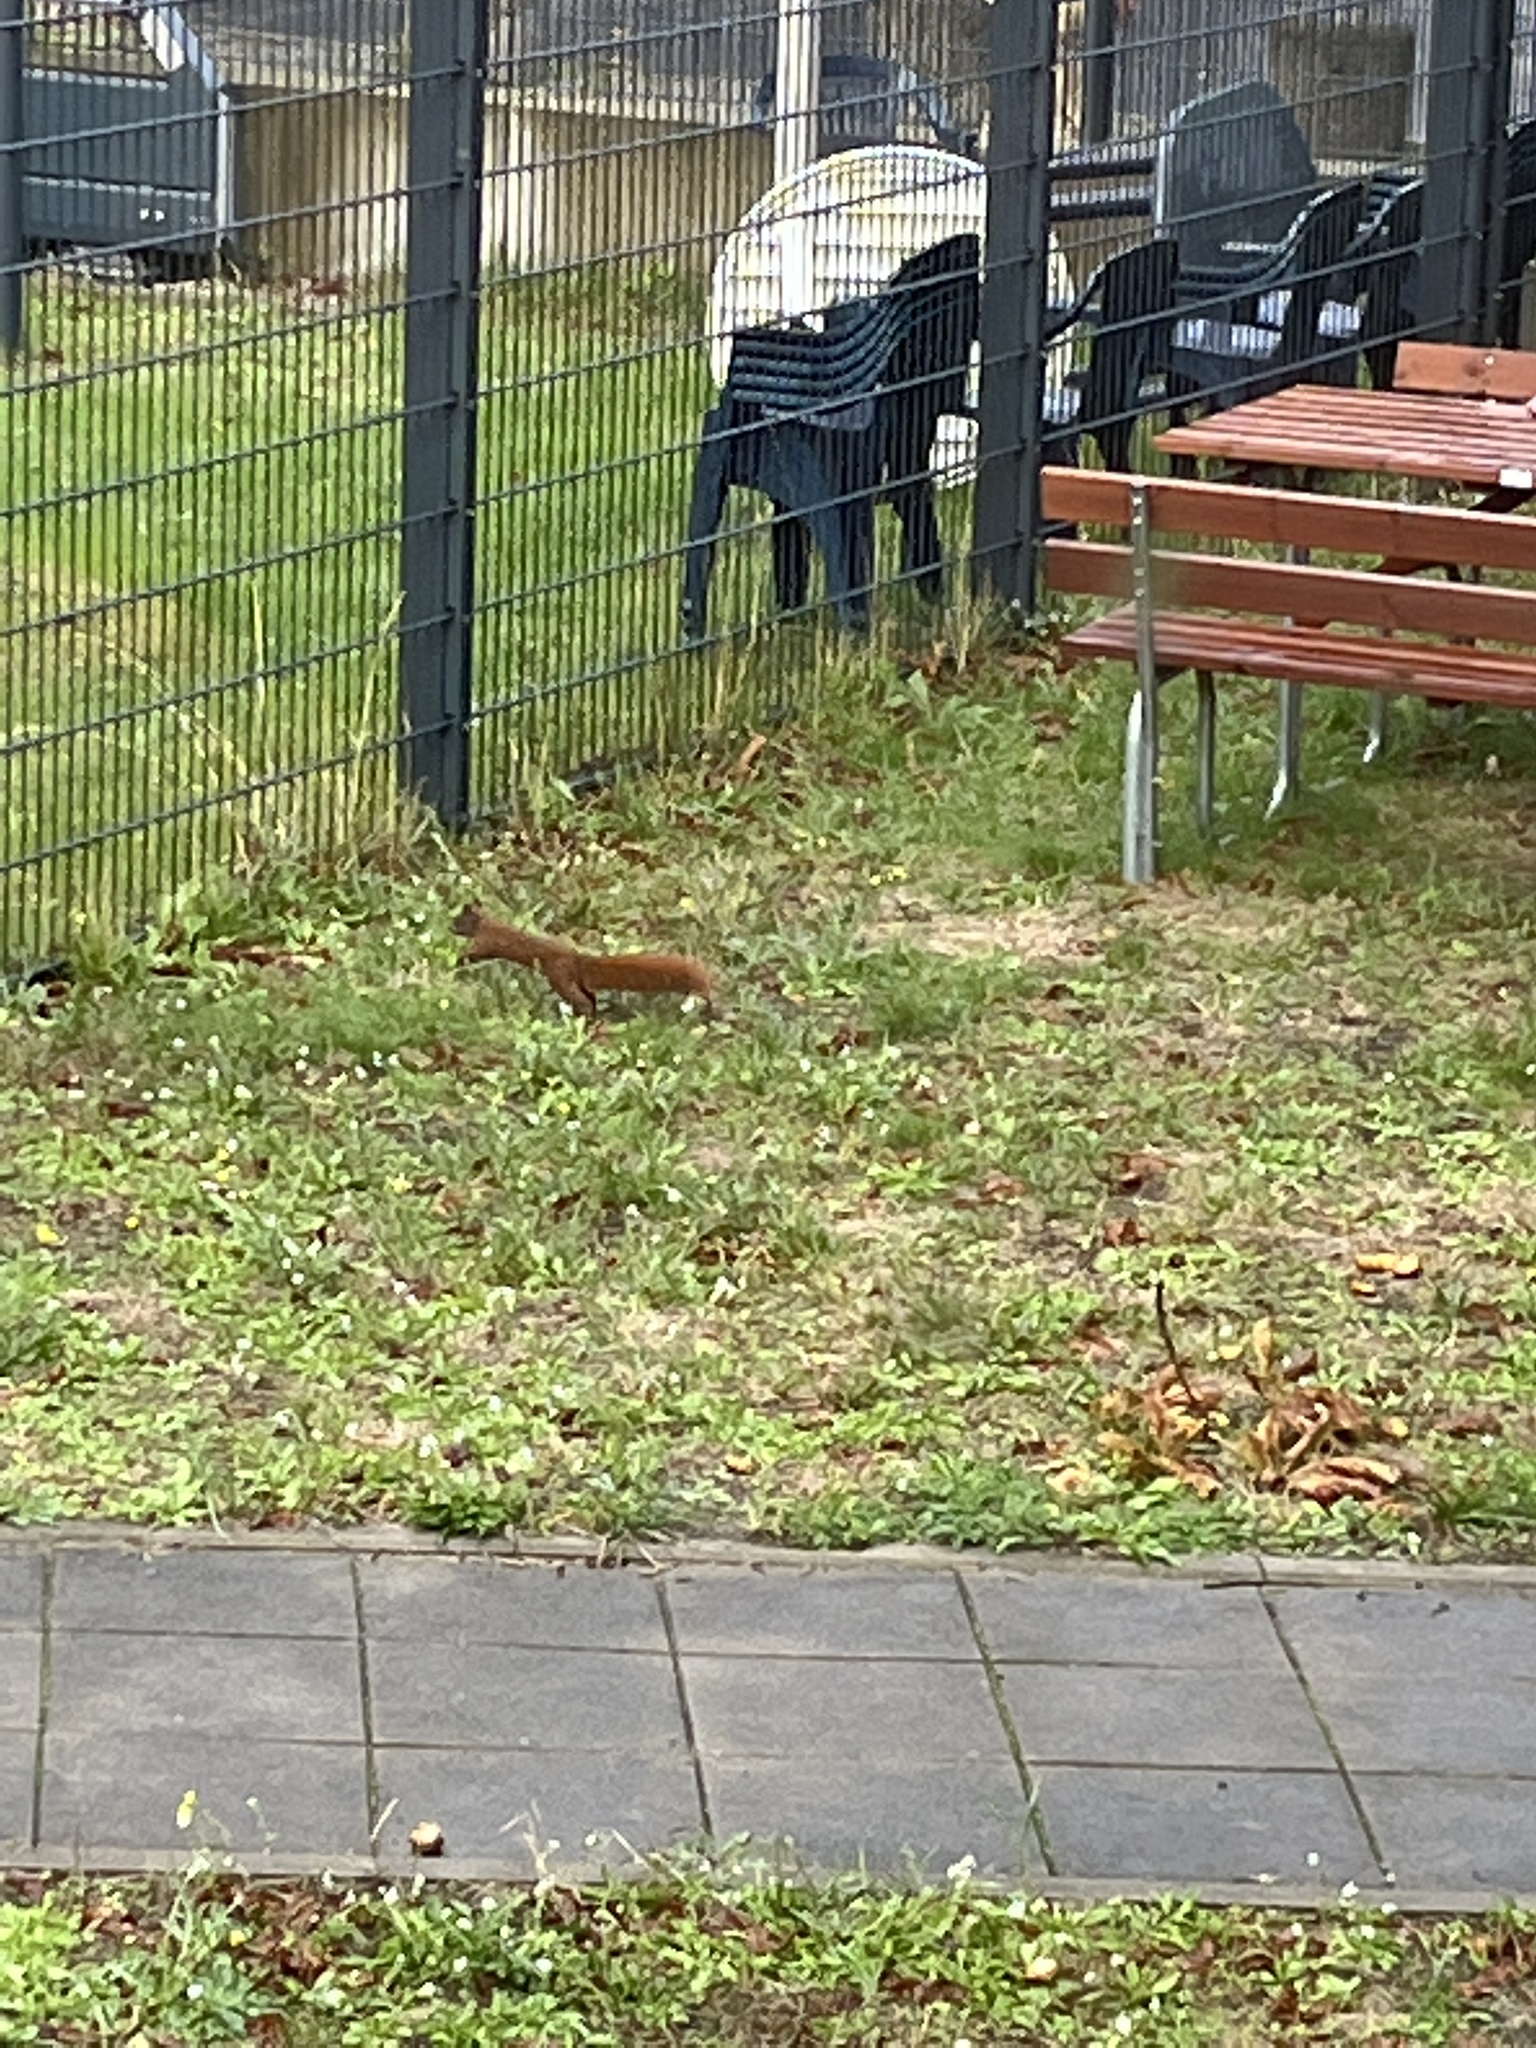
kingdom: Animalia
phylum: Chordata
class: Mammalia
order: Rodentia
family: Sciuridae
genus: Sciurus
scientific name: Sciurus vulgaris
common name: Eurasian red squirrel
